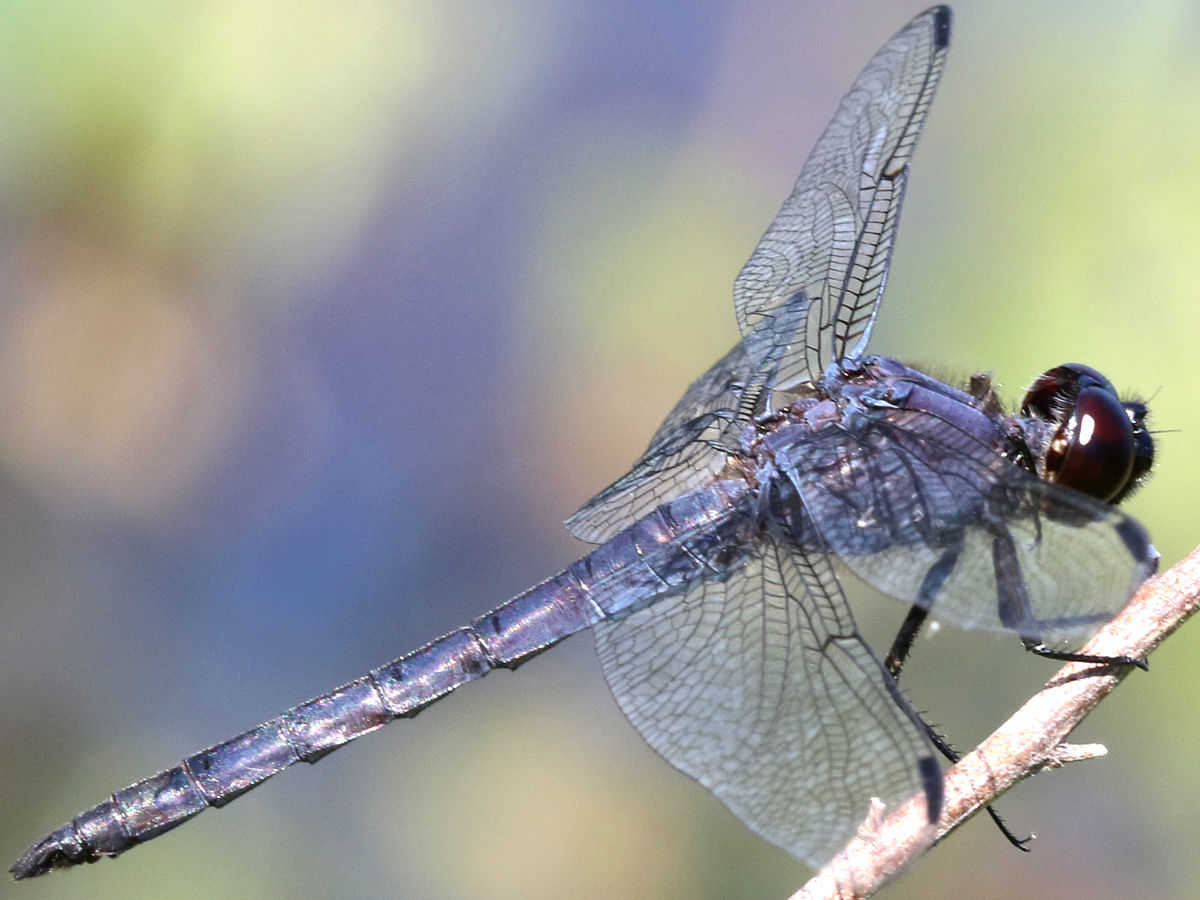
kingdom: Animalia
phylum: Arthropoda
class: Insecta
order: Odonata
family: Libellulidae
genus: Libellula
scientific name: Libellula incesta
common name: Slaty skimmer
